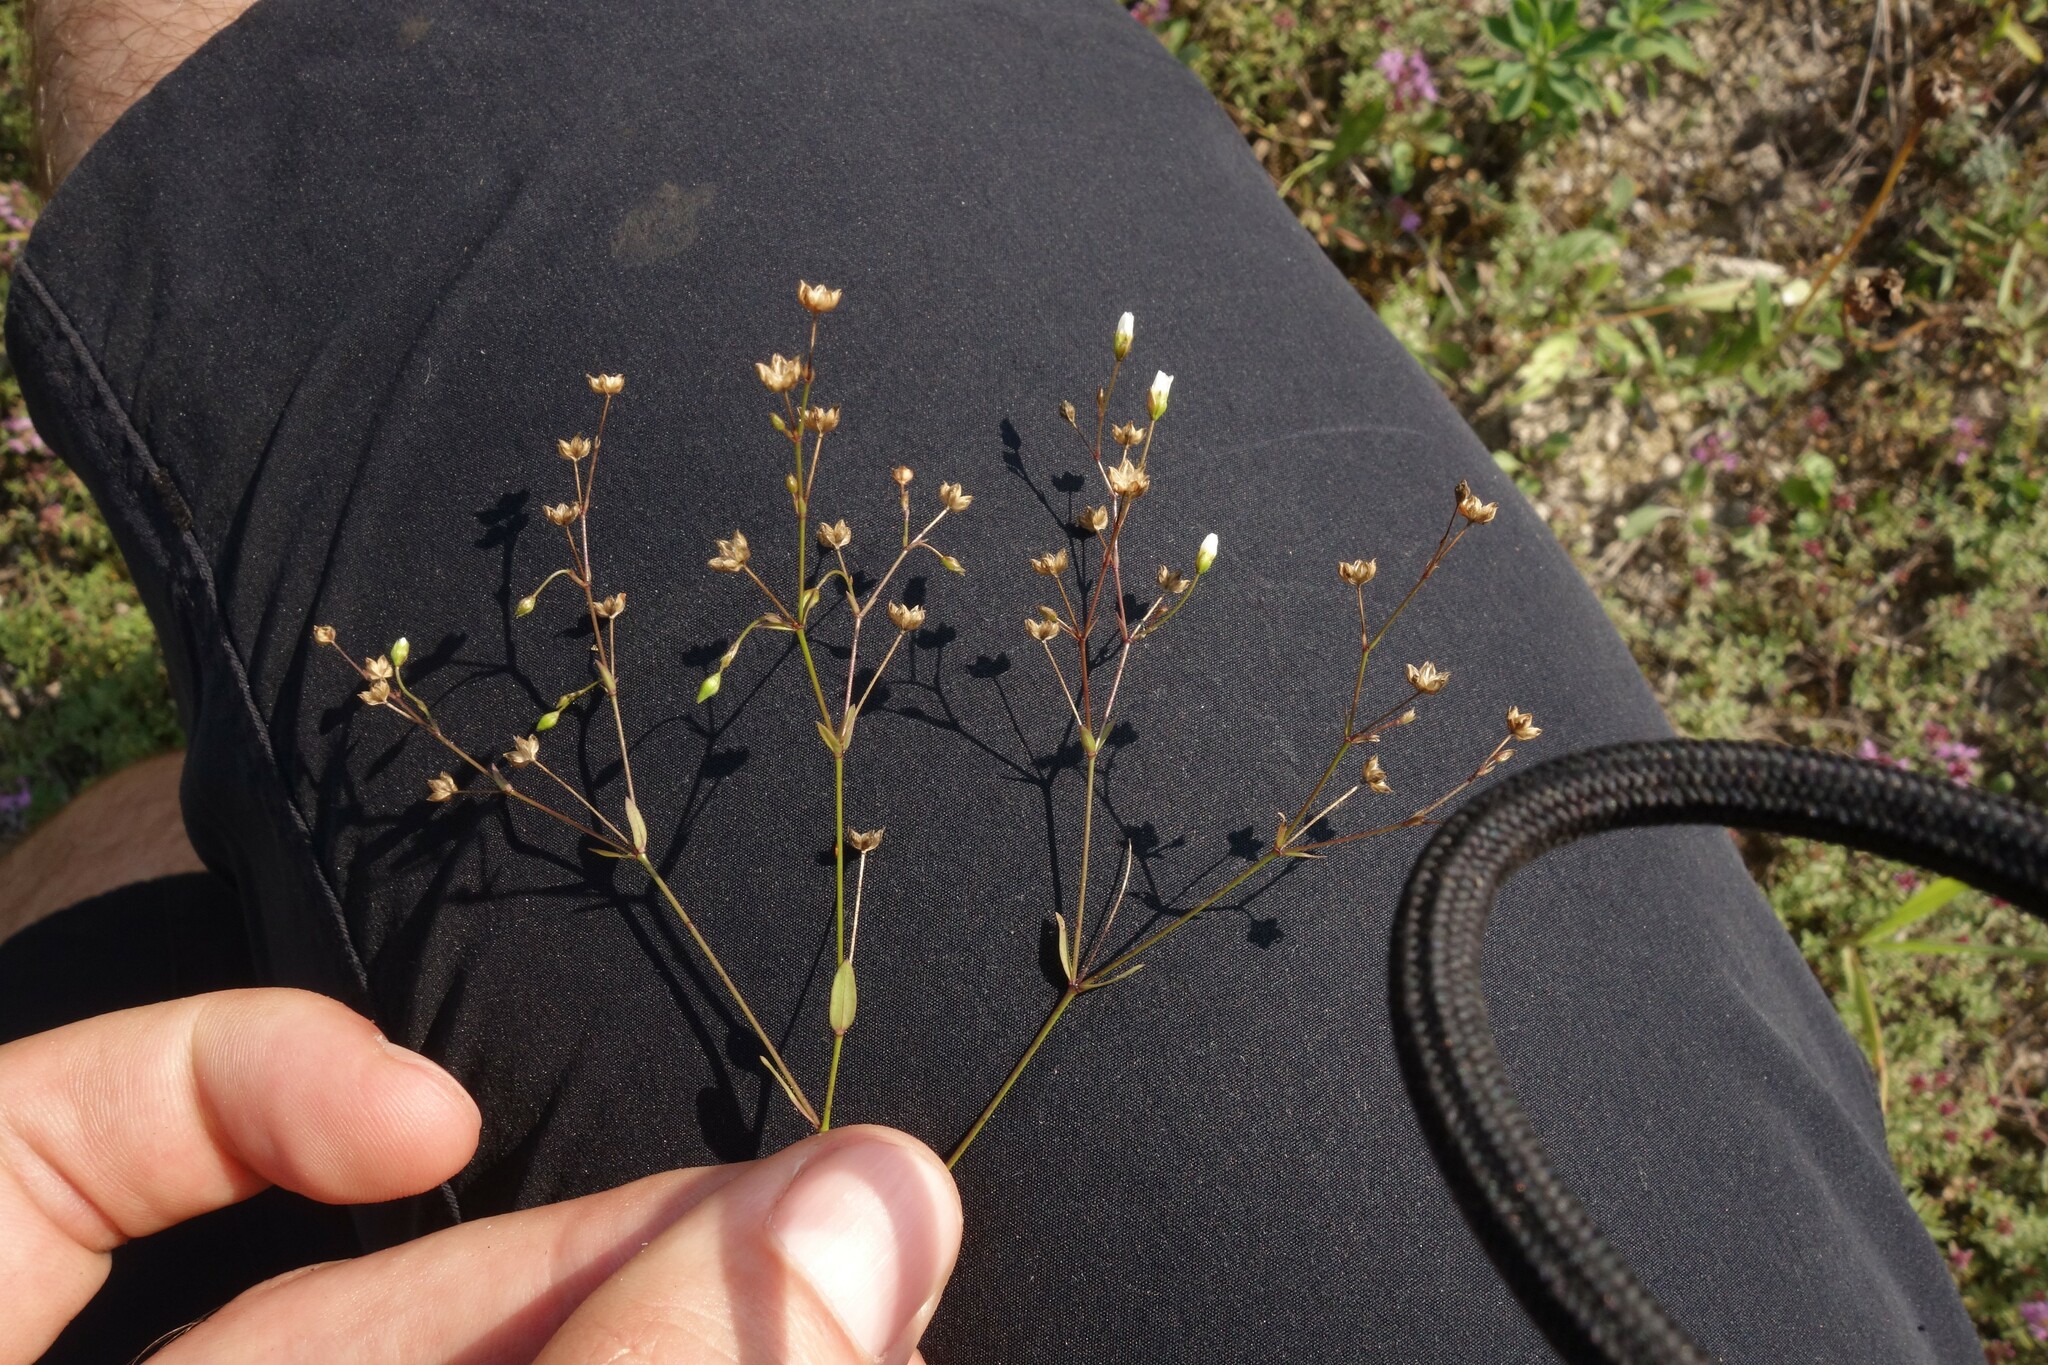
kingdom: Plantae
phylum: Tracheophyta
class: Magnoliopsida
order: Malpighiales
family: Linaceae
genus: Linum
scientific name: Linum catharticum
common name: Fairy flax
